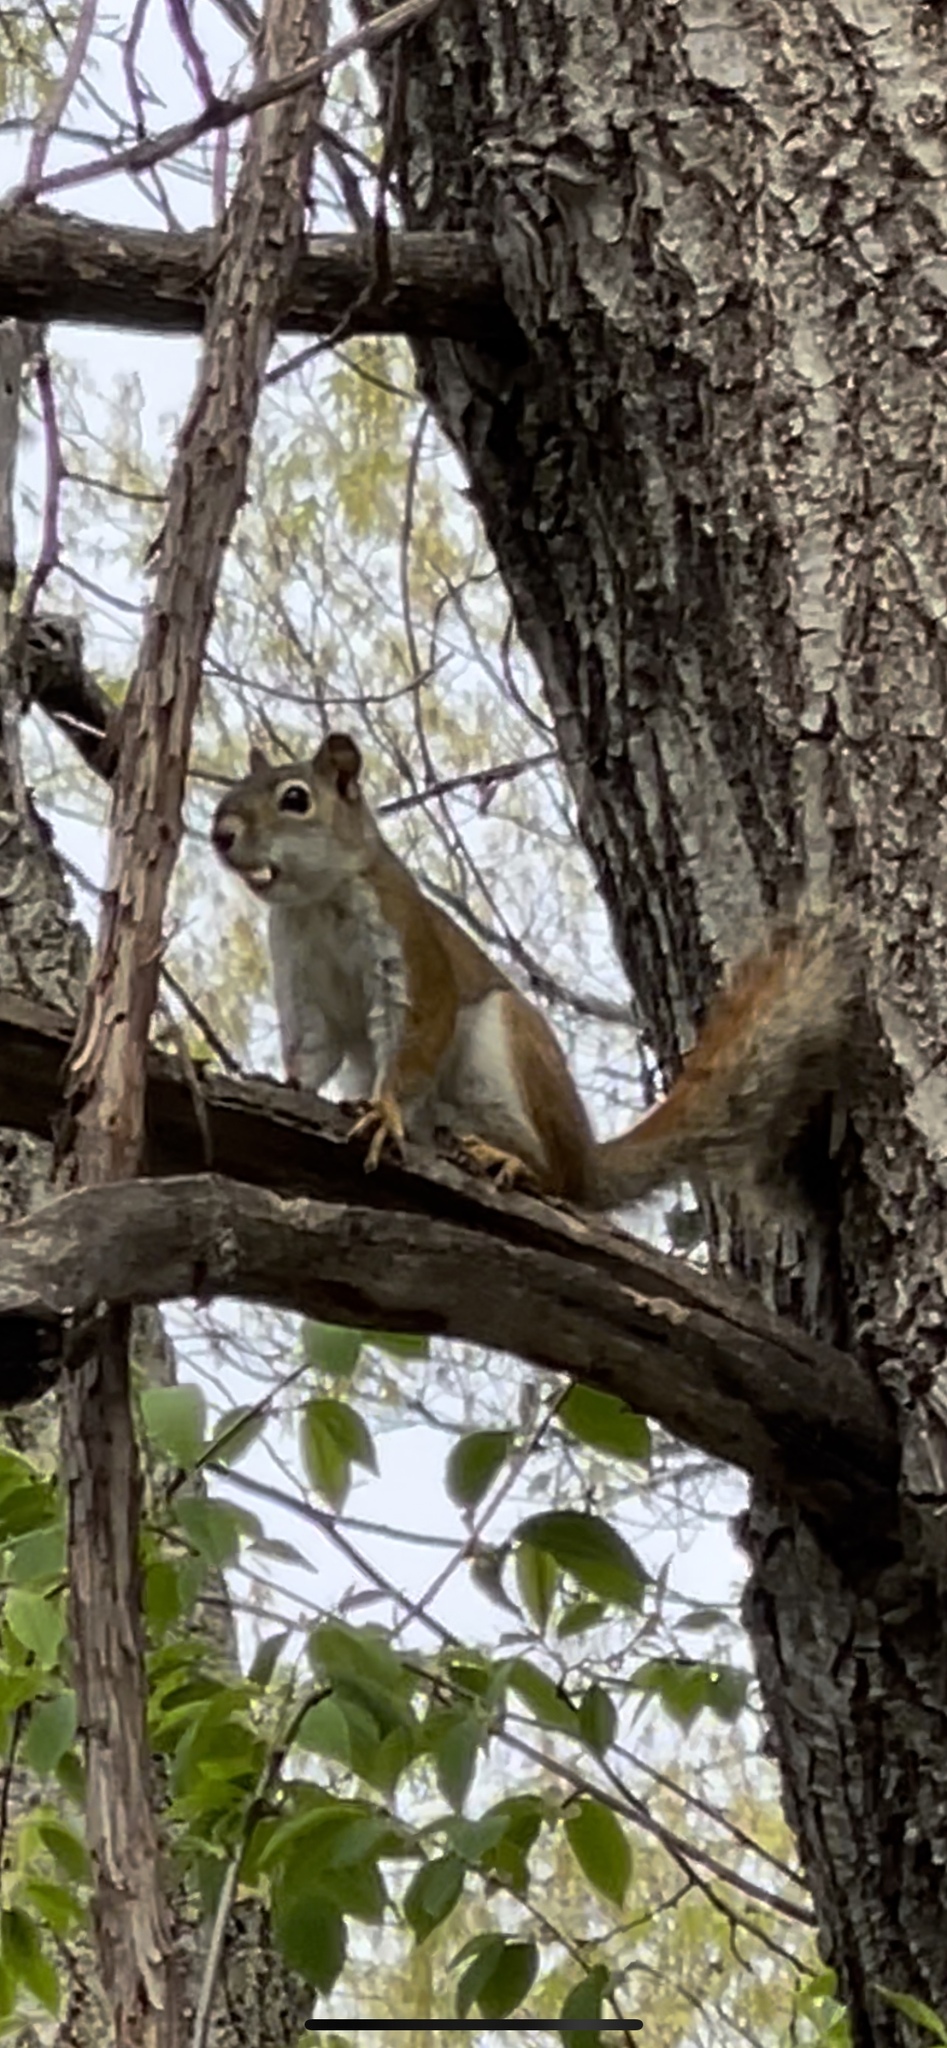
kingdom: Animalia
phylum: Chordata
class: Mammalia
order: Rodentia
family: Sciuridae
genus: Tamiasciurus
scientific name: Tamiasciurus hudsonicus
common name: Red squirrel
